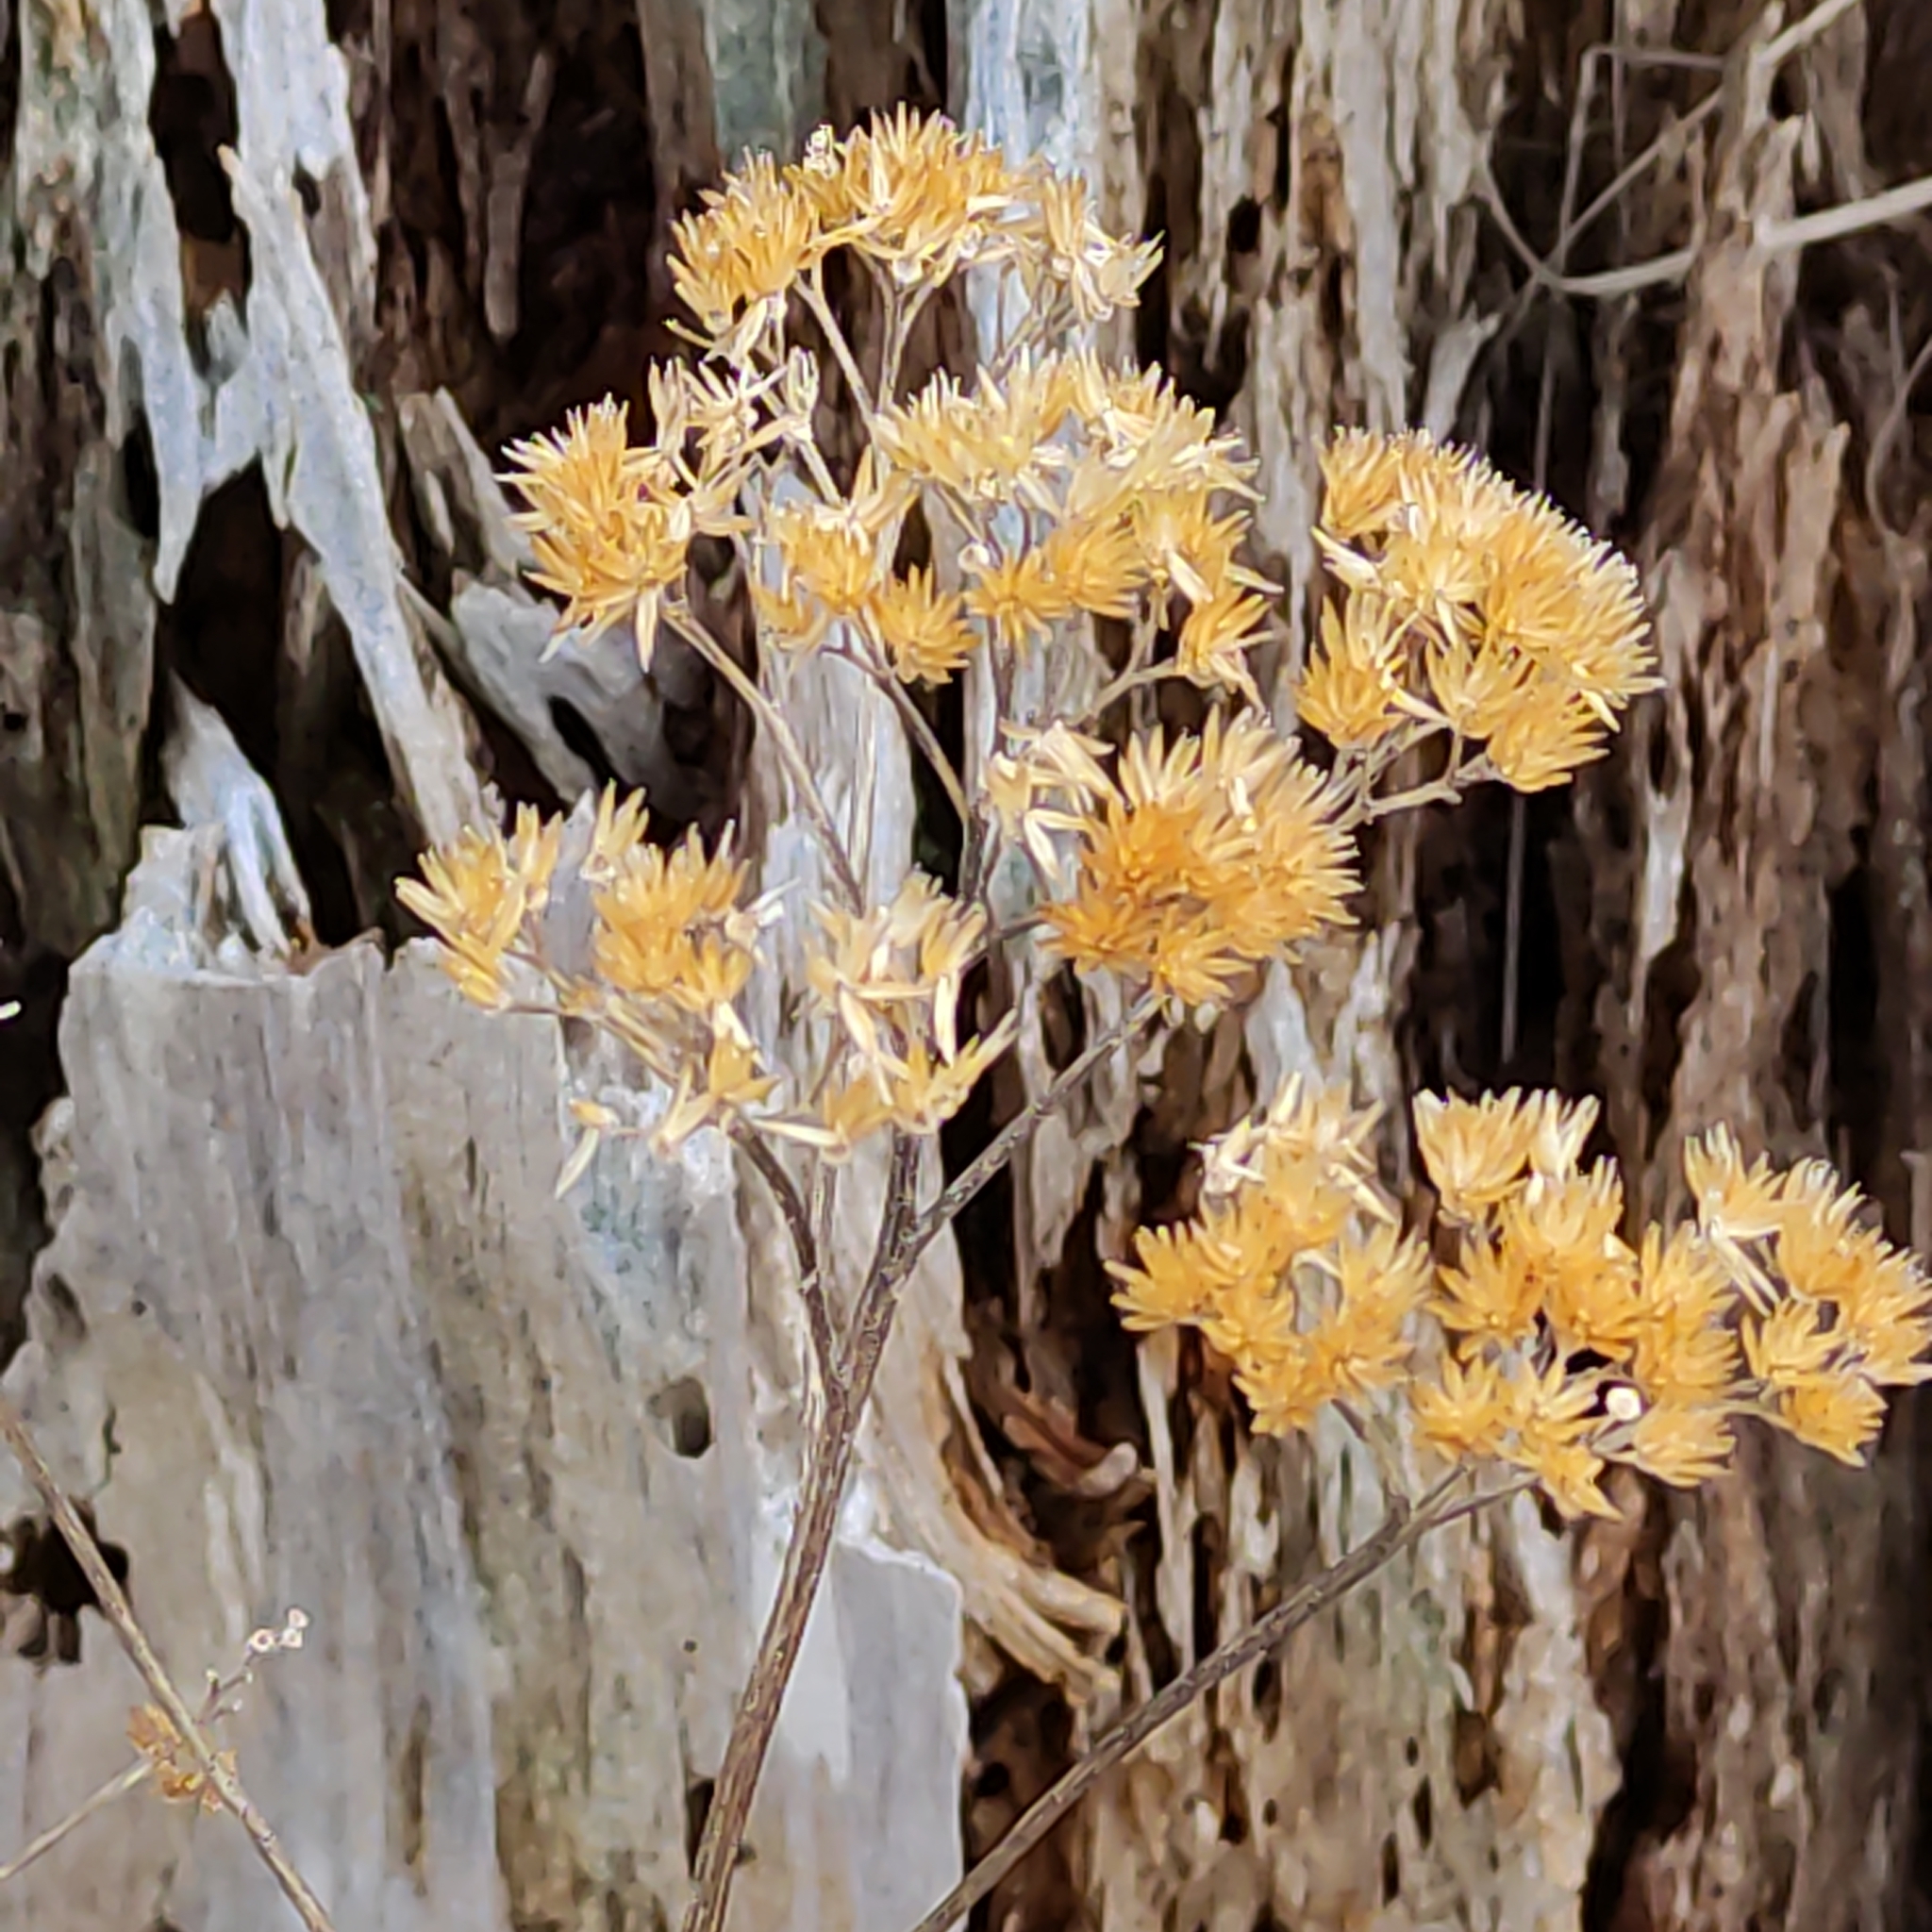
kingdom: Plantae
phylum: Tracheophyta
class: Magnoliopsida
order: Asterales
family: Asteraceae
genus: Achillea
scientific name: Achillea millefolium
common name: Yarrow
